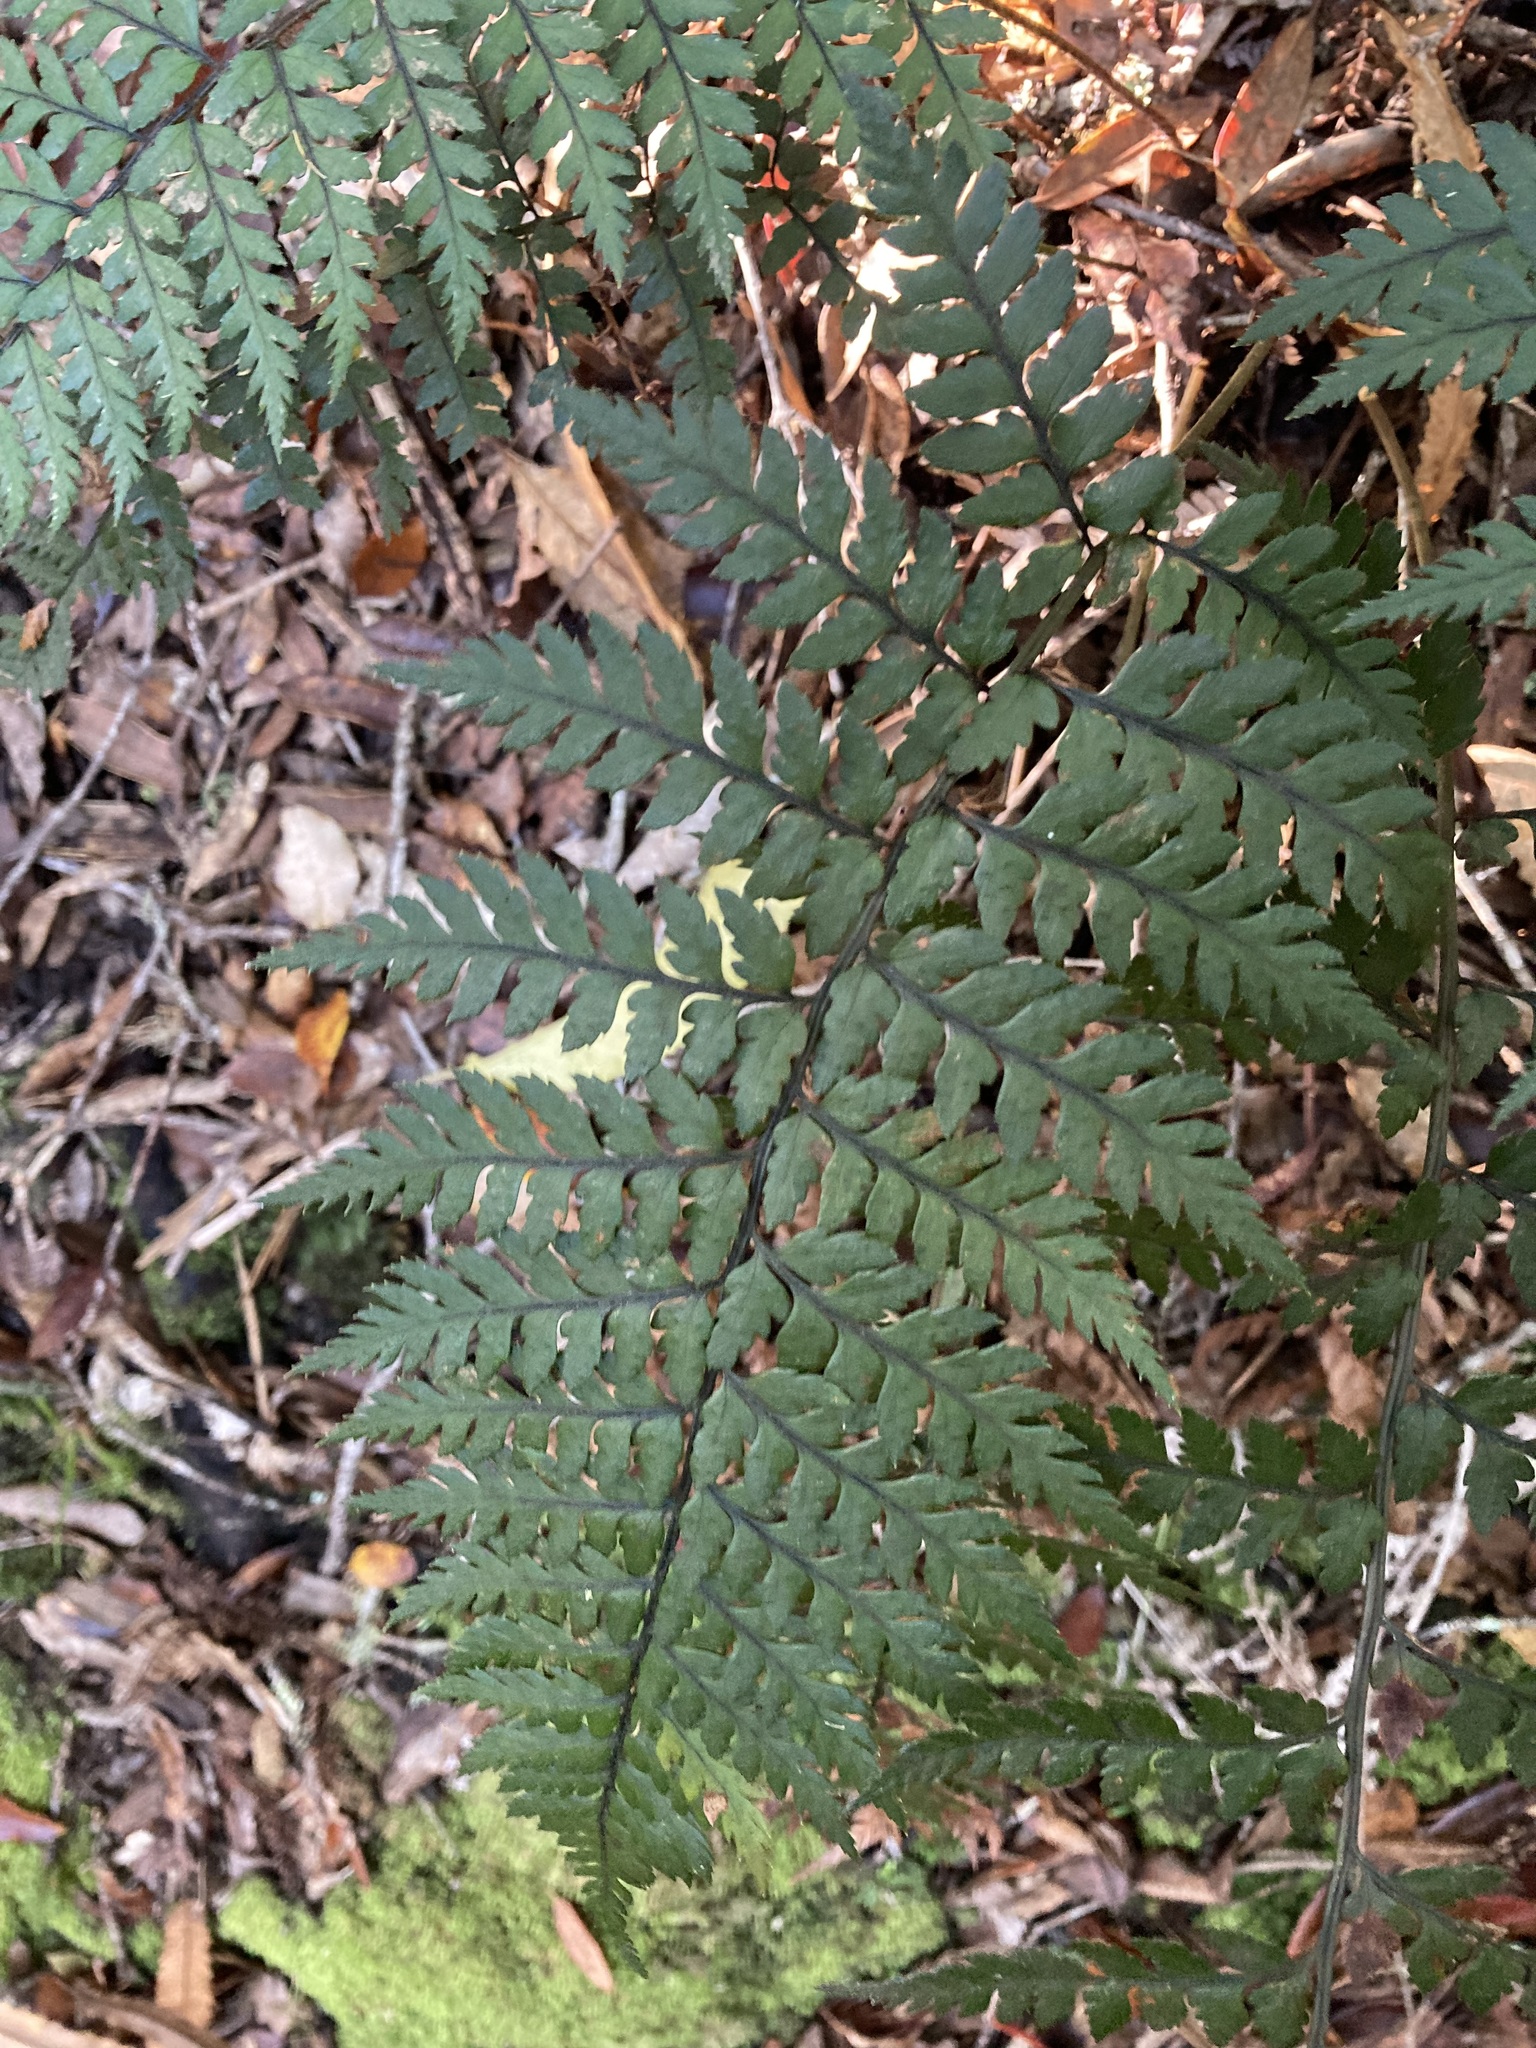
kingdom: Plantae
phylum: Tracheophyta
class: Polypodiopsida
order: Polypodiales
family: Dryopteridaceae
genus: Polystichum
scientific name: Polystichum neozelandicum
